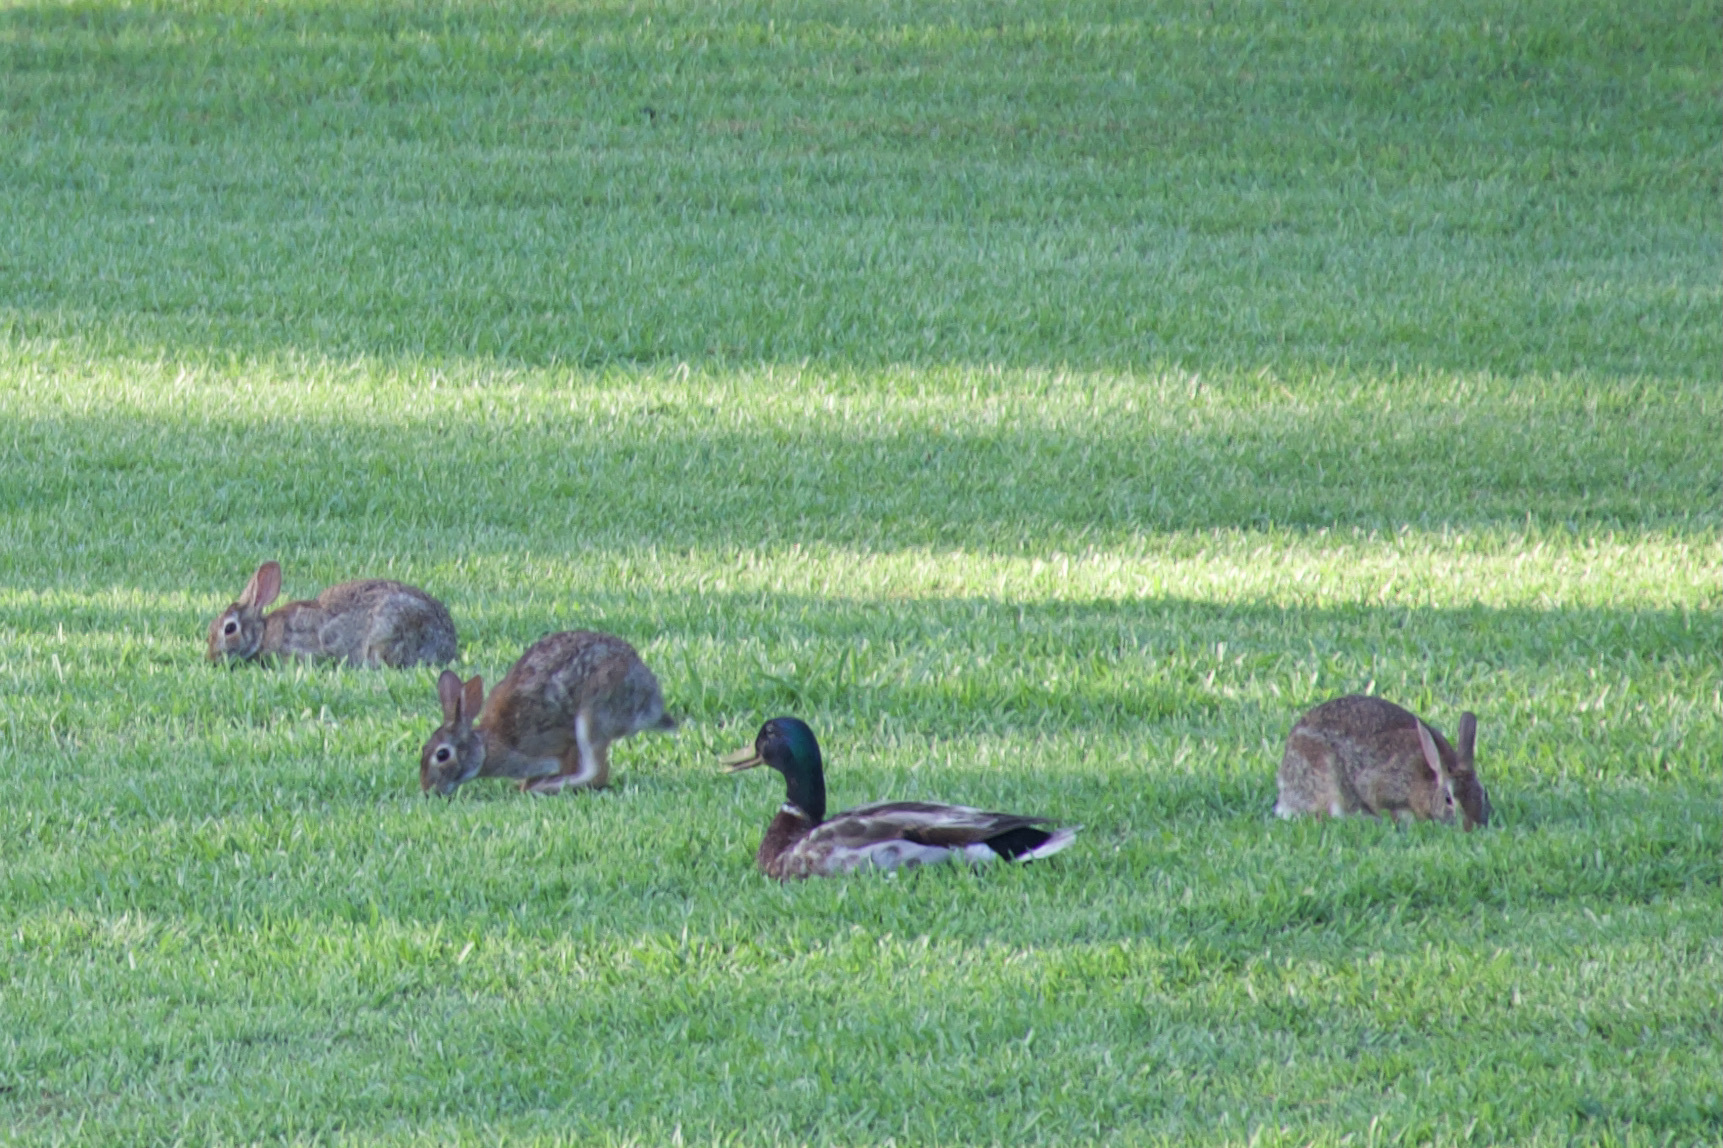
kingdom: Animalia
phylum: Chordata
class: Mammalia
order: Lagomorpha
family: Leporidae
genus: Sylvilagus
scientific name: Sylvilagus floridanus
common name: Eastern cottontail
